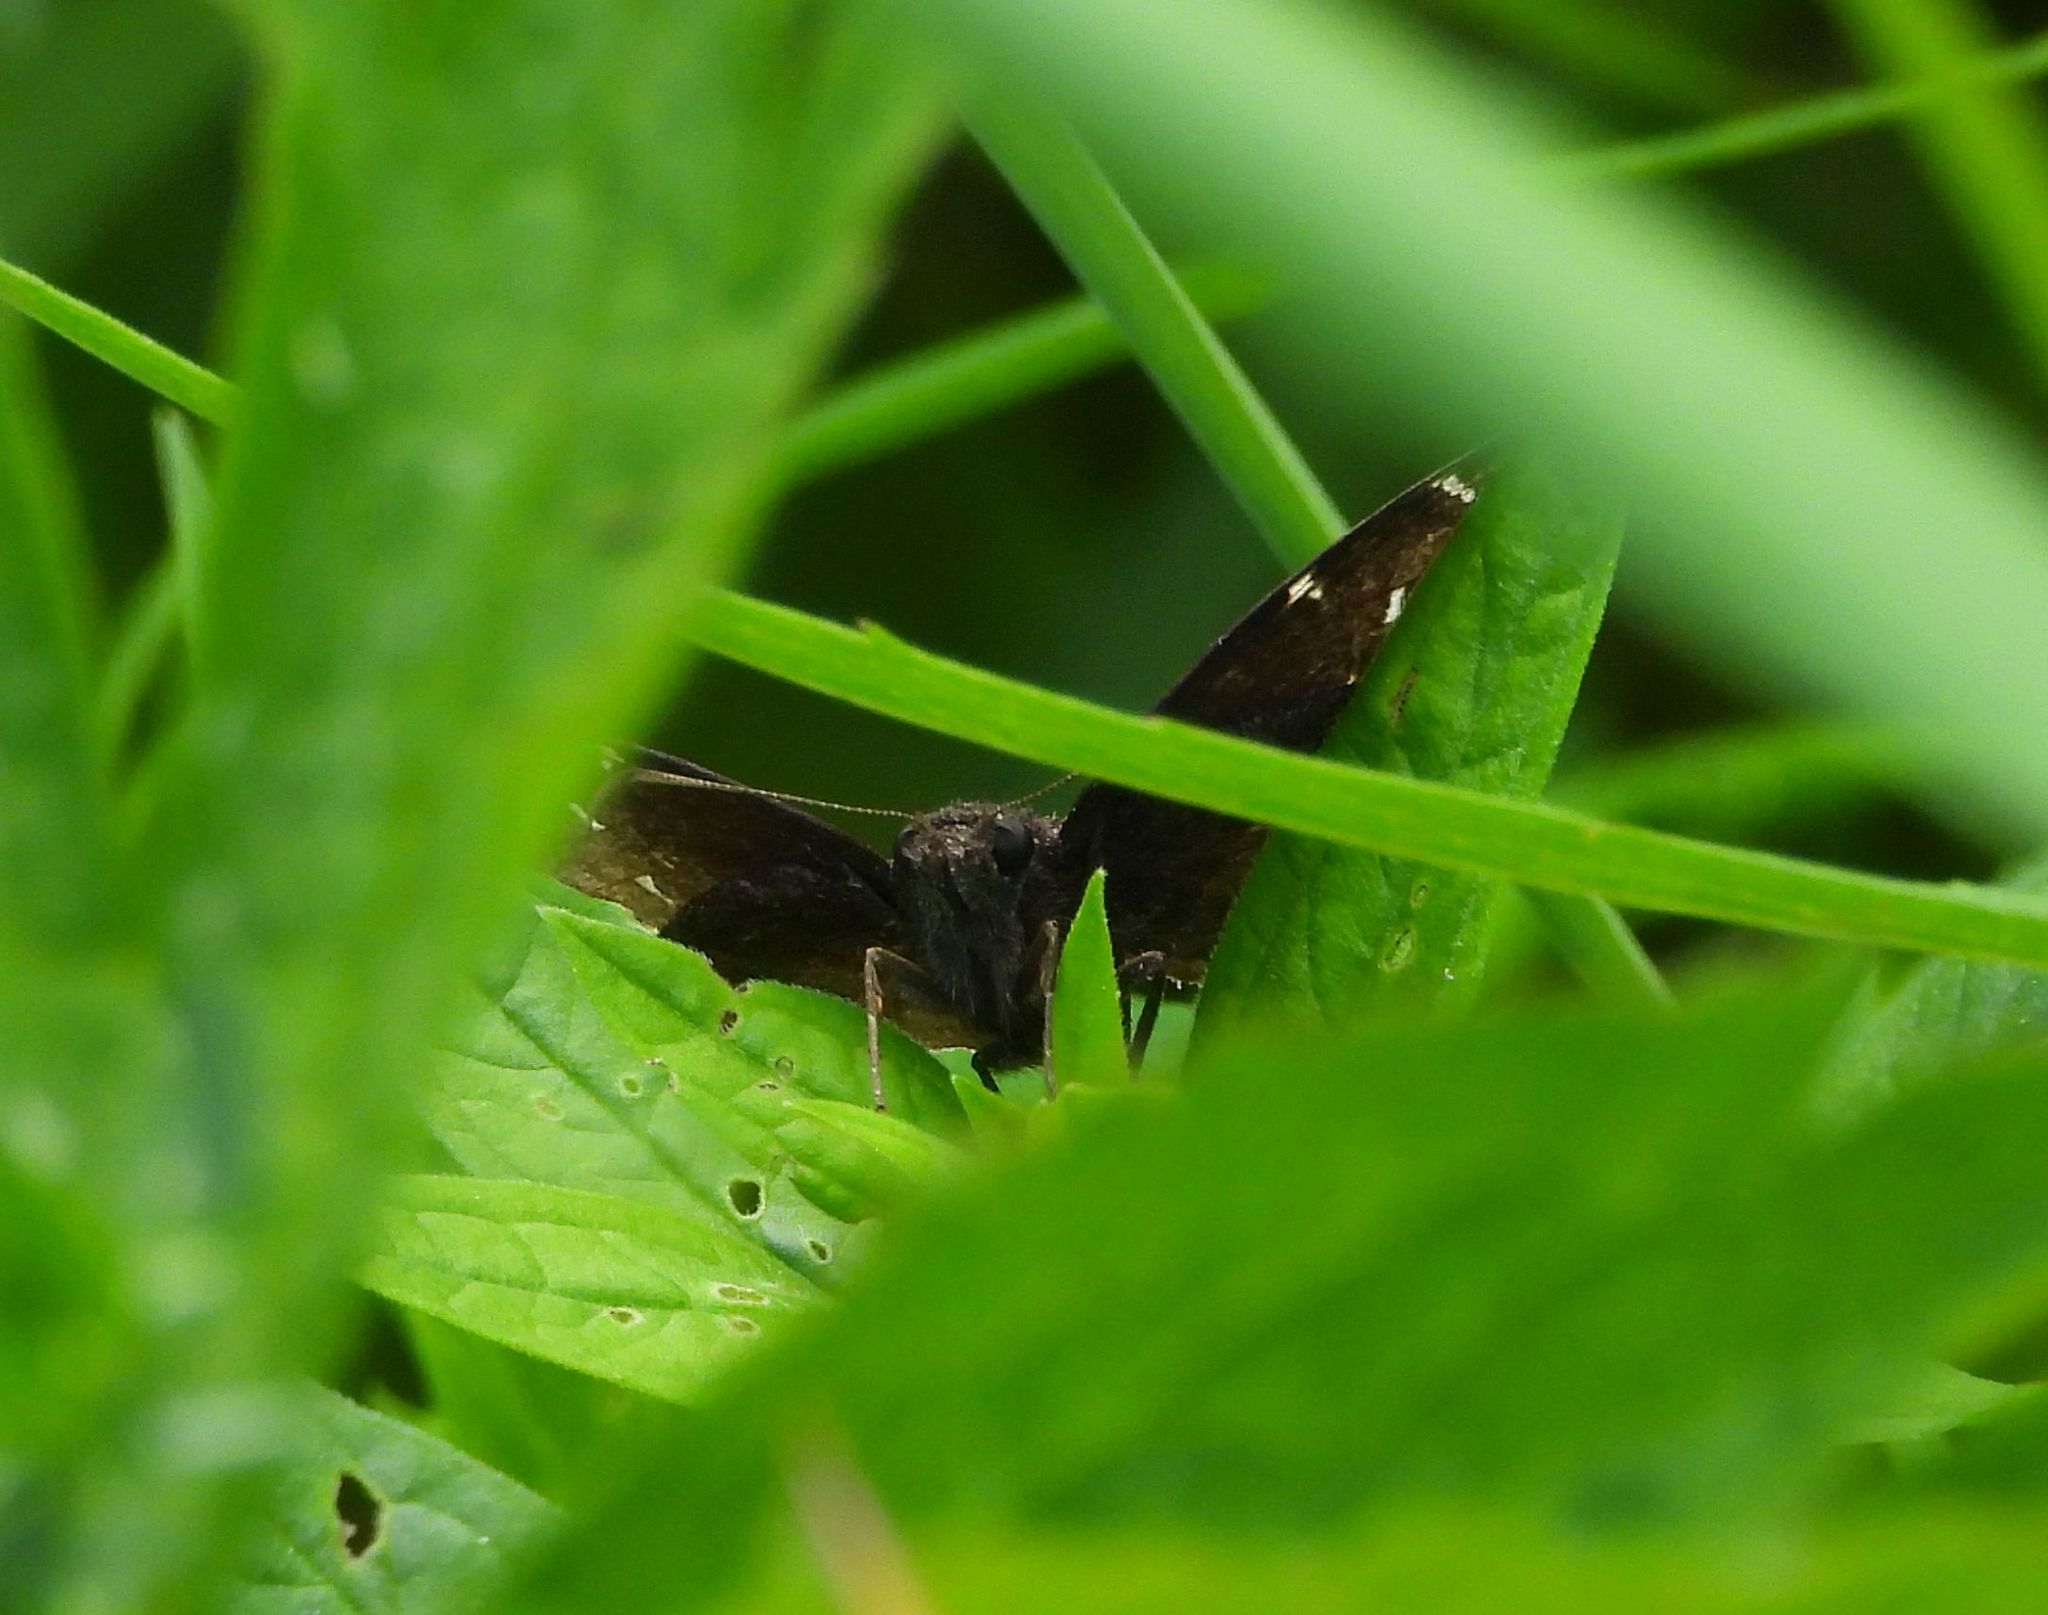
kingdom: Animalia
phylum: Arthropoda
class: Insecta
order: Lepidoptera
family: Hesperiidae
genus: Thorybes
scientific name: Thorybes pylades
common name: Northern cloudywing
